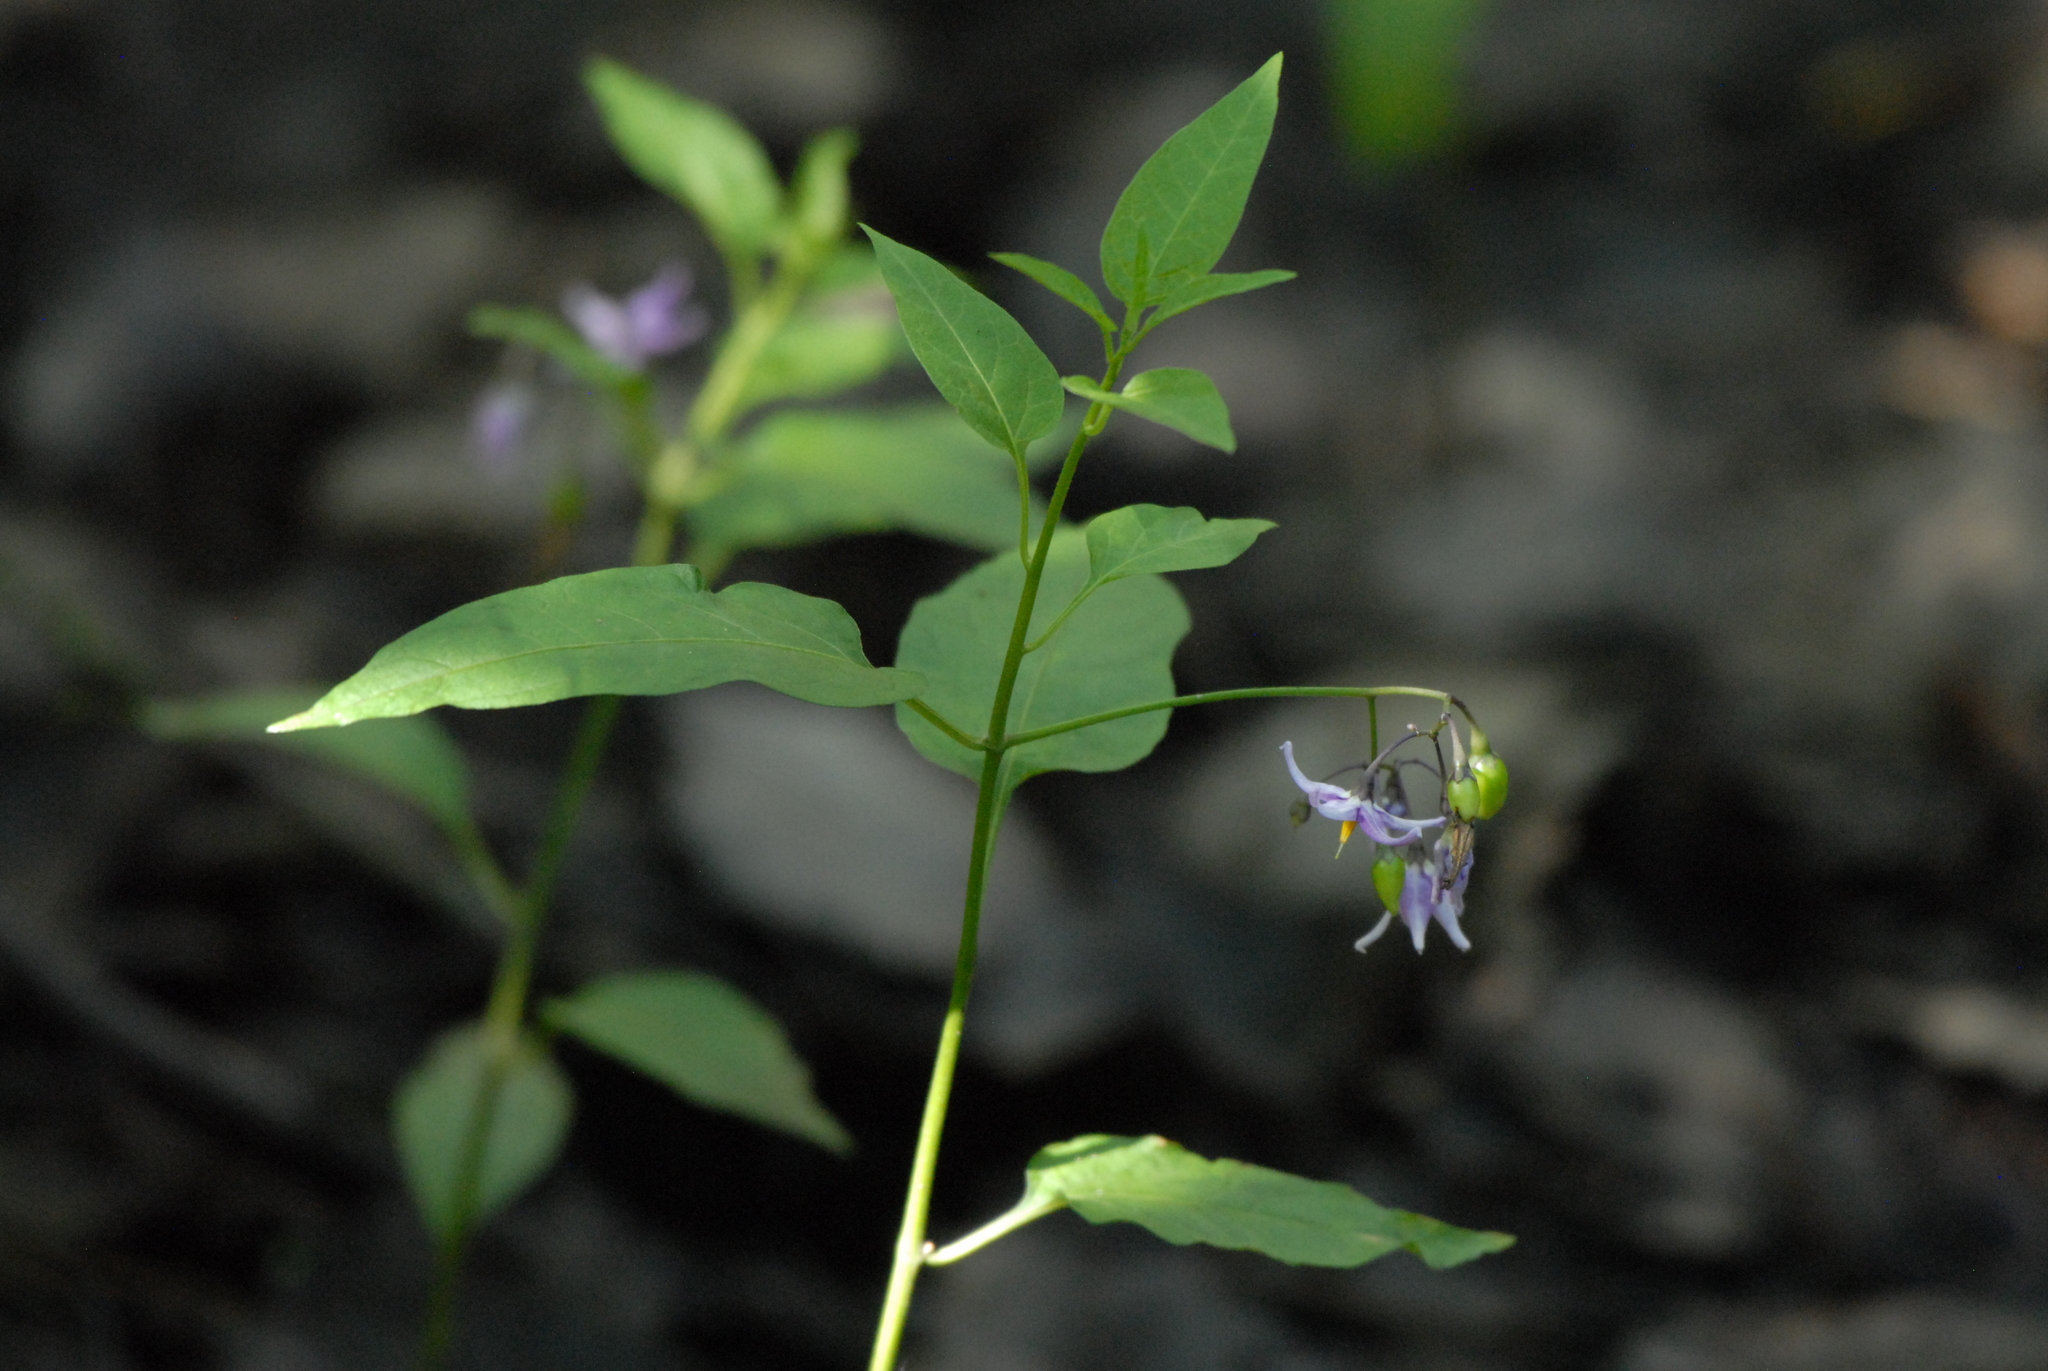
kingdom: Plantae
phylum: Tracheophyta
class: Magnoliopsida
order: Solanales
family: Solanaceae
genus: Solanum
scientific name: Solanum dulcamara
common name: Climbing nightshade
